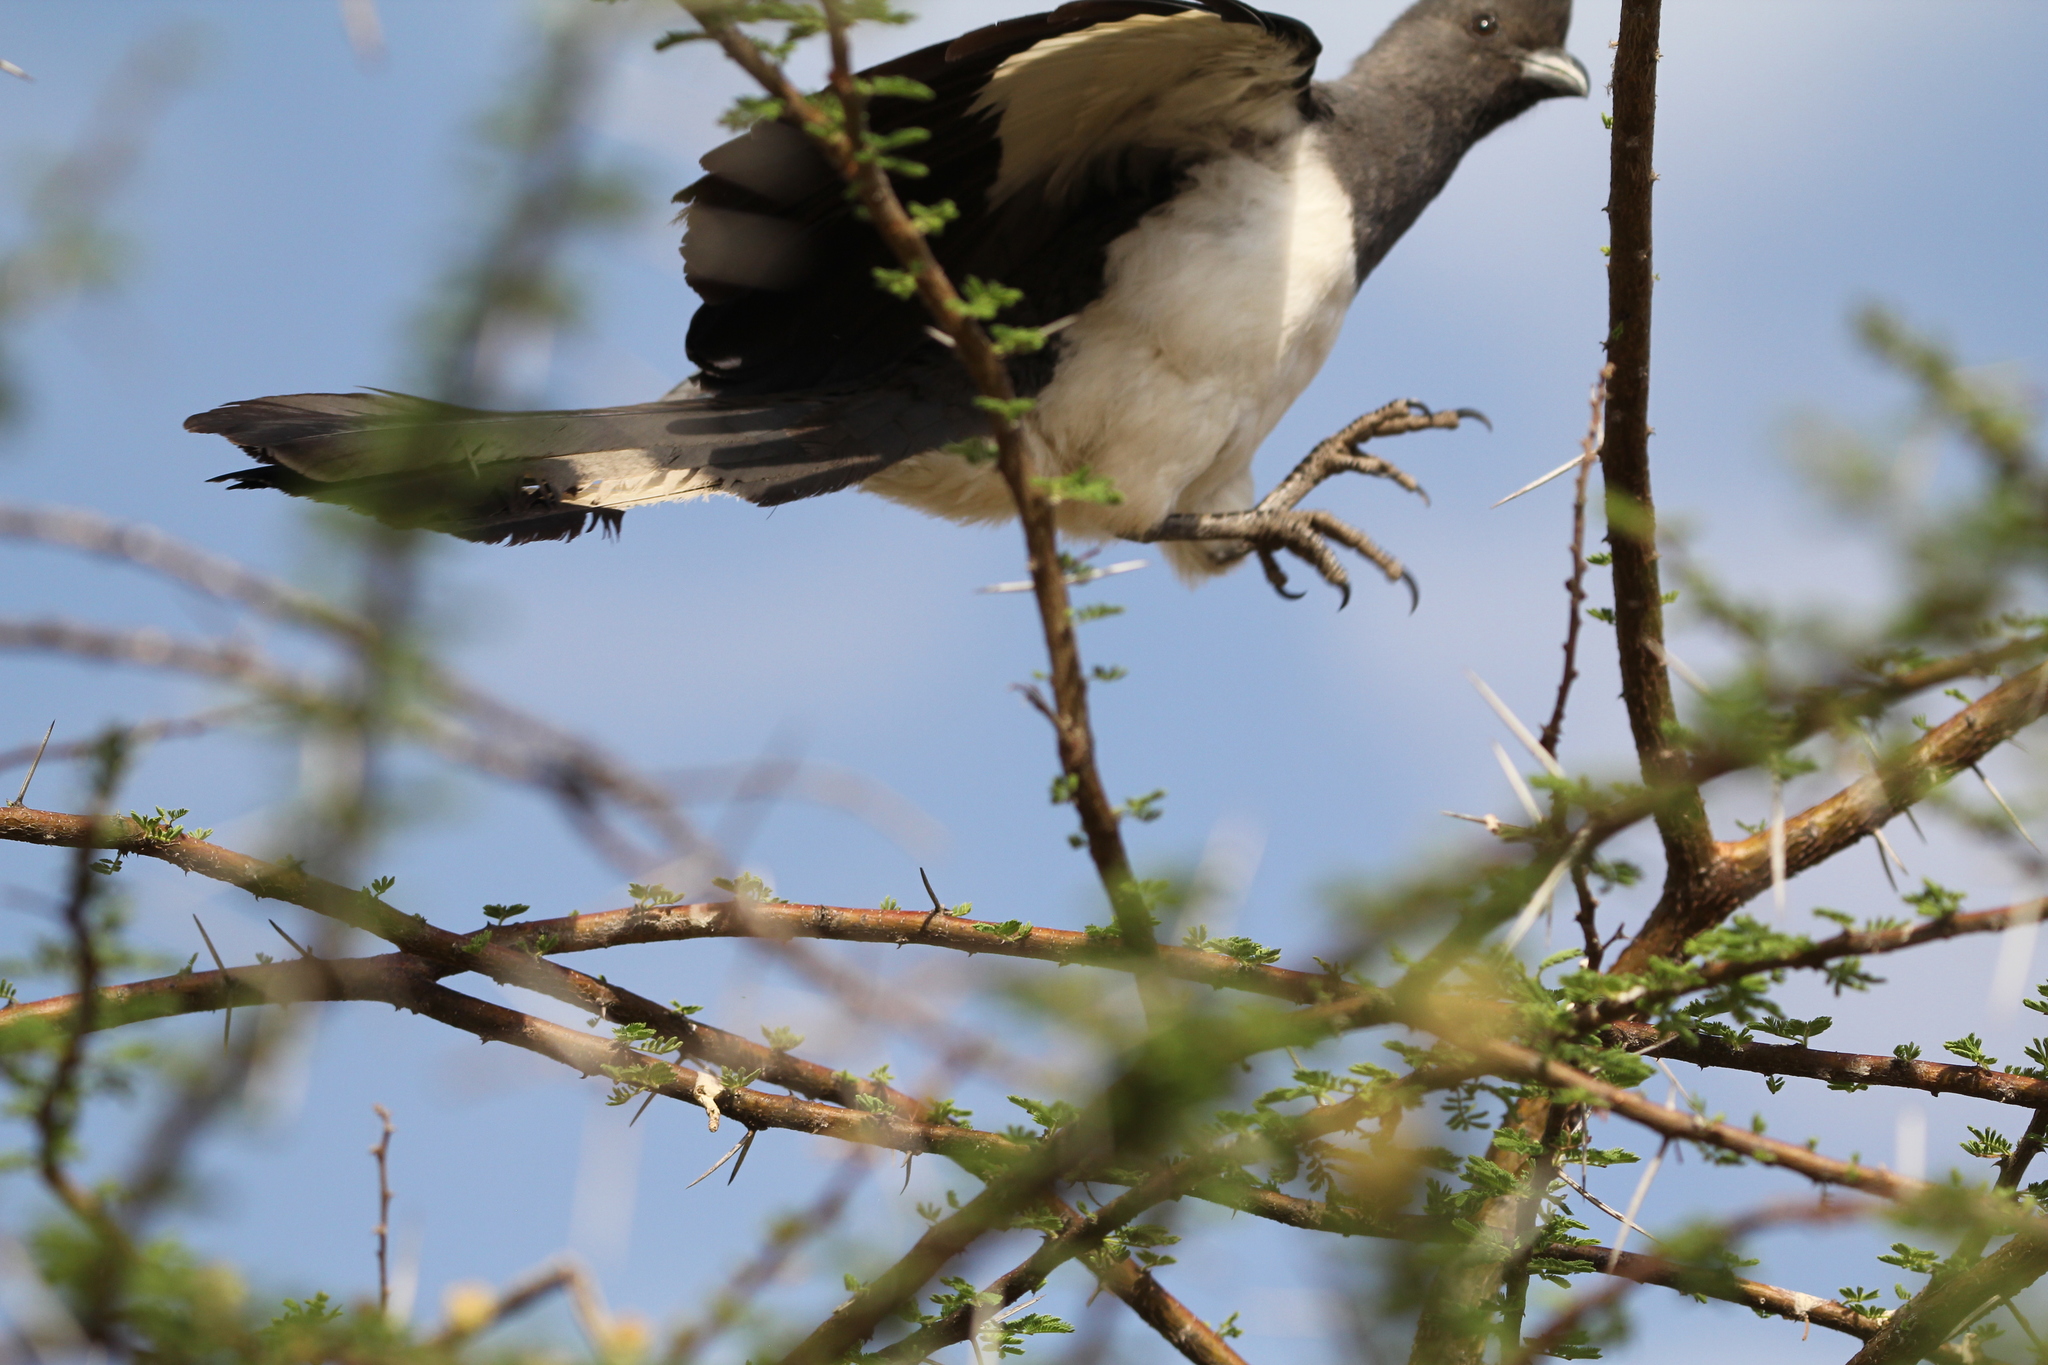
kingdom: Animalia
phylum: Chordata
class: Aves
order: Musophagiformes
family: Musophagidae
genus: Corythaixoides
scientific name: Corythaixoides leucogaster
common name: White-bellied go-away-bird
